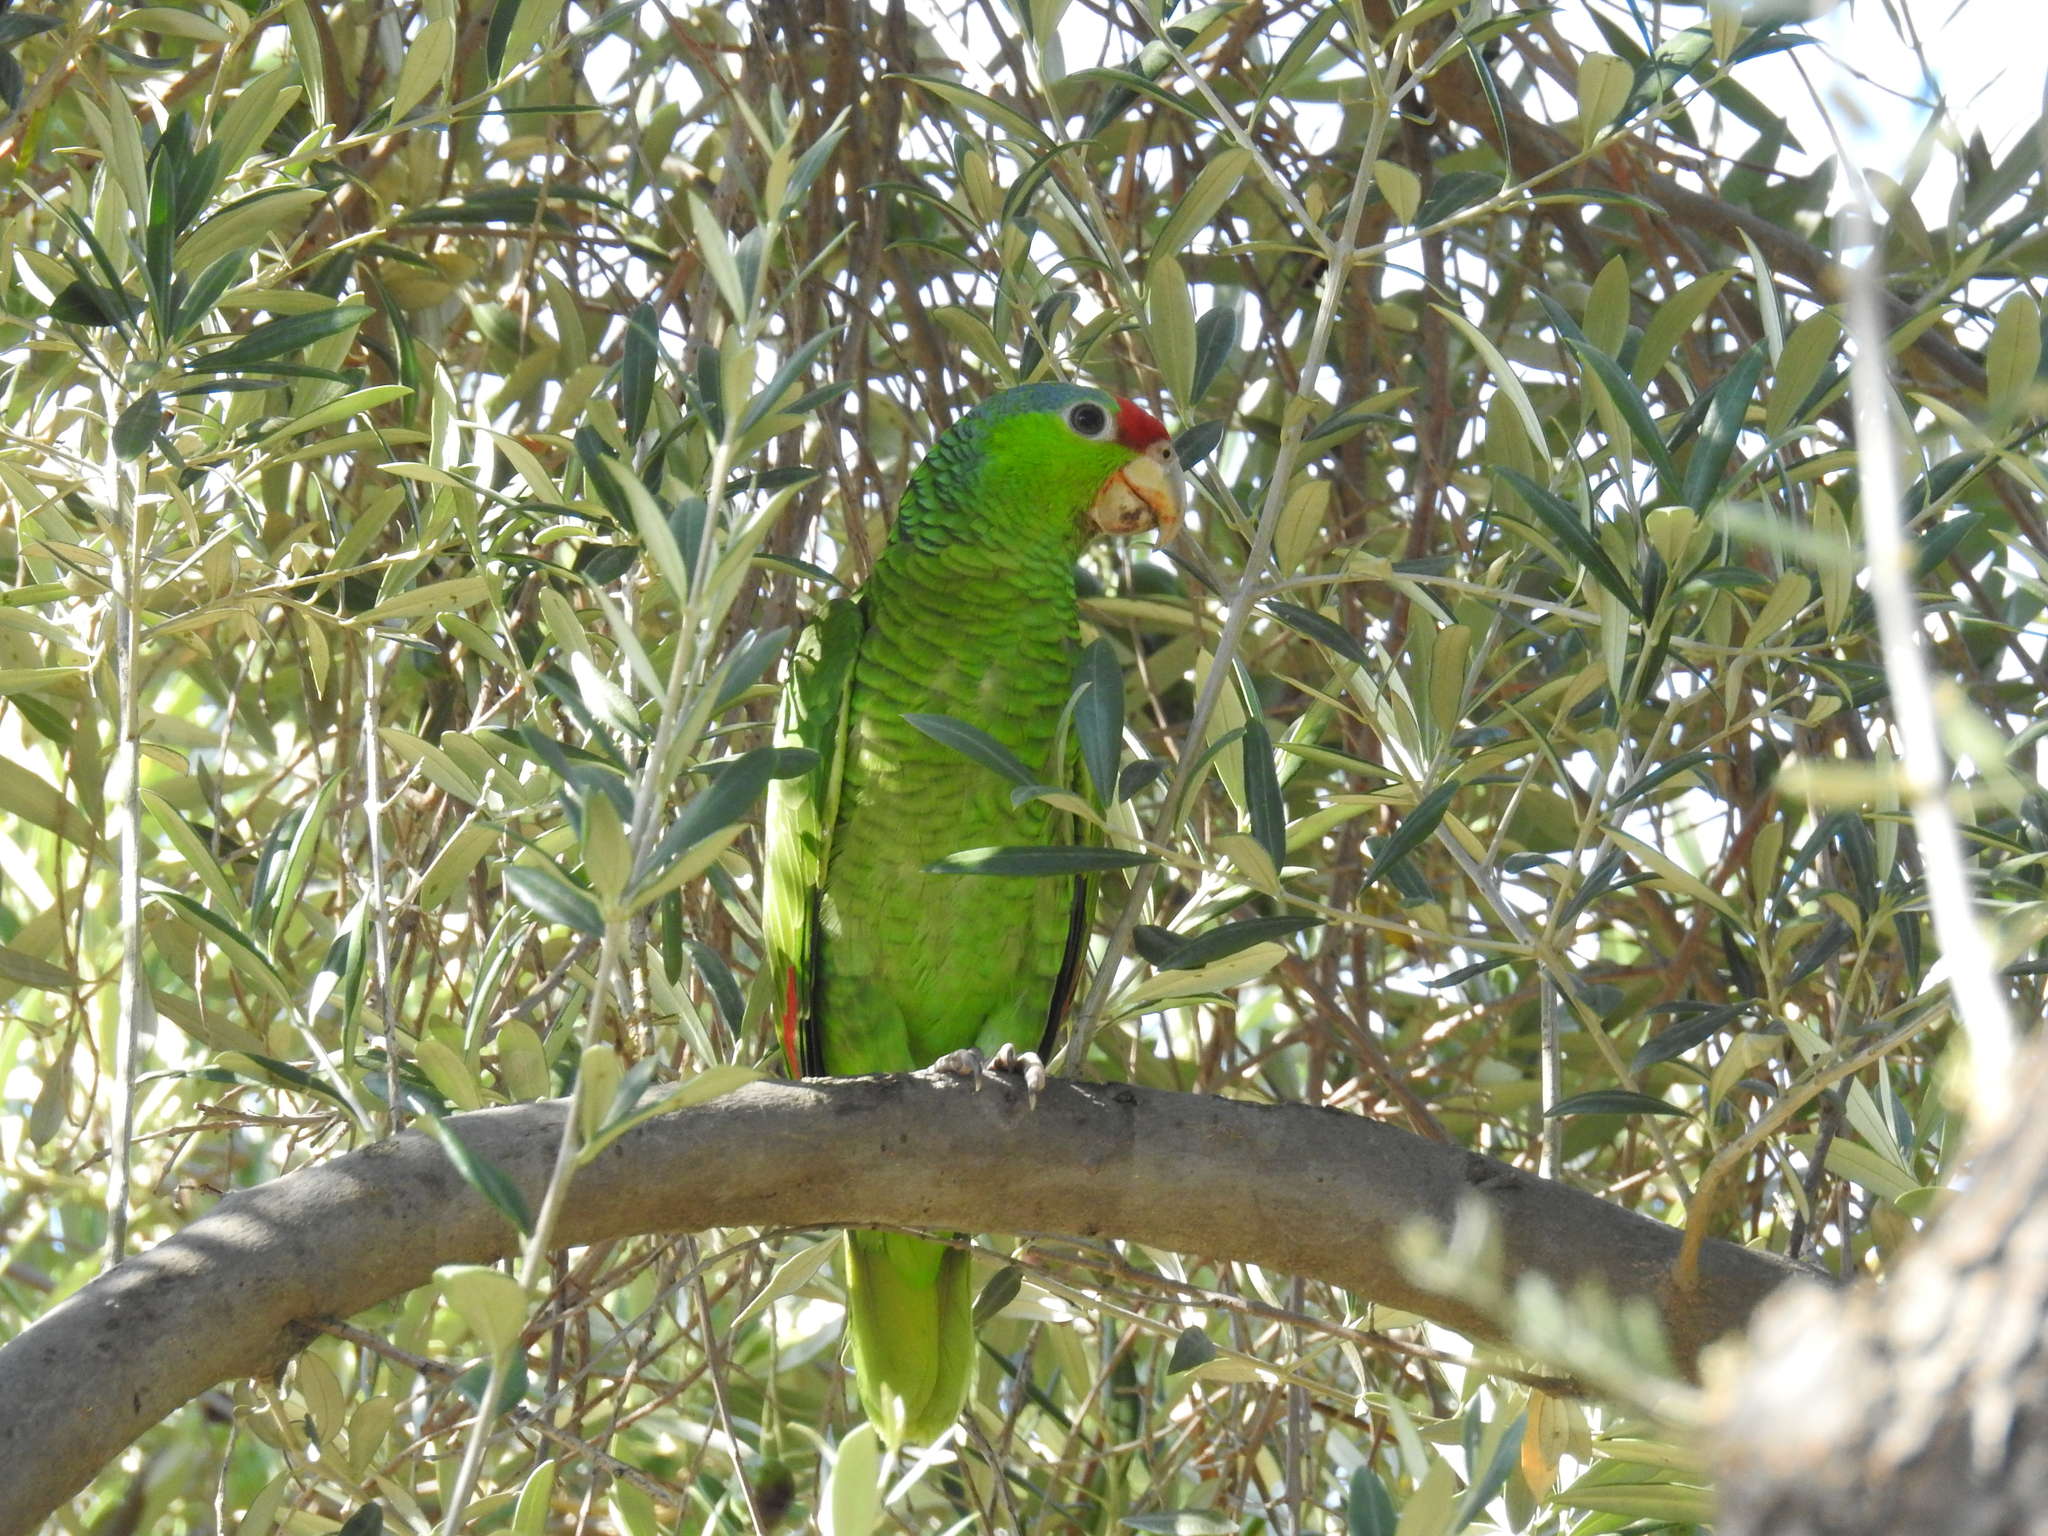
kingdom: Animalia
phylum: Chordata
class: Aves
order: Psittaciformes
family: Psittacidae
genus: Amazona
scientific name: Amazona viridigenalis
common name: Red-crowned amazon
